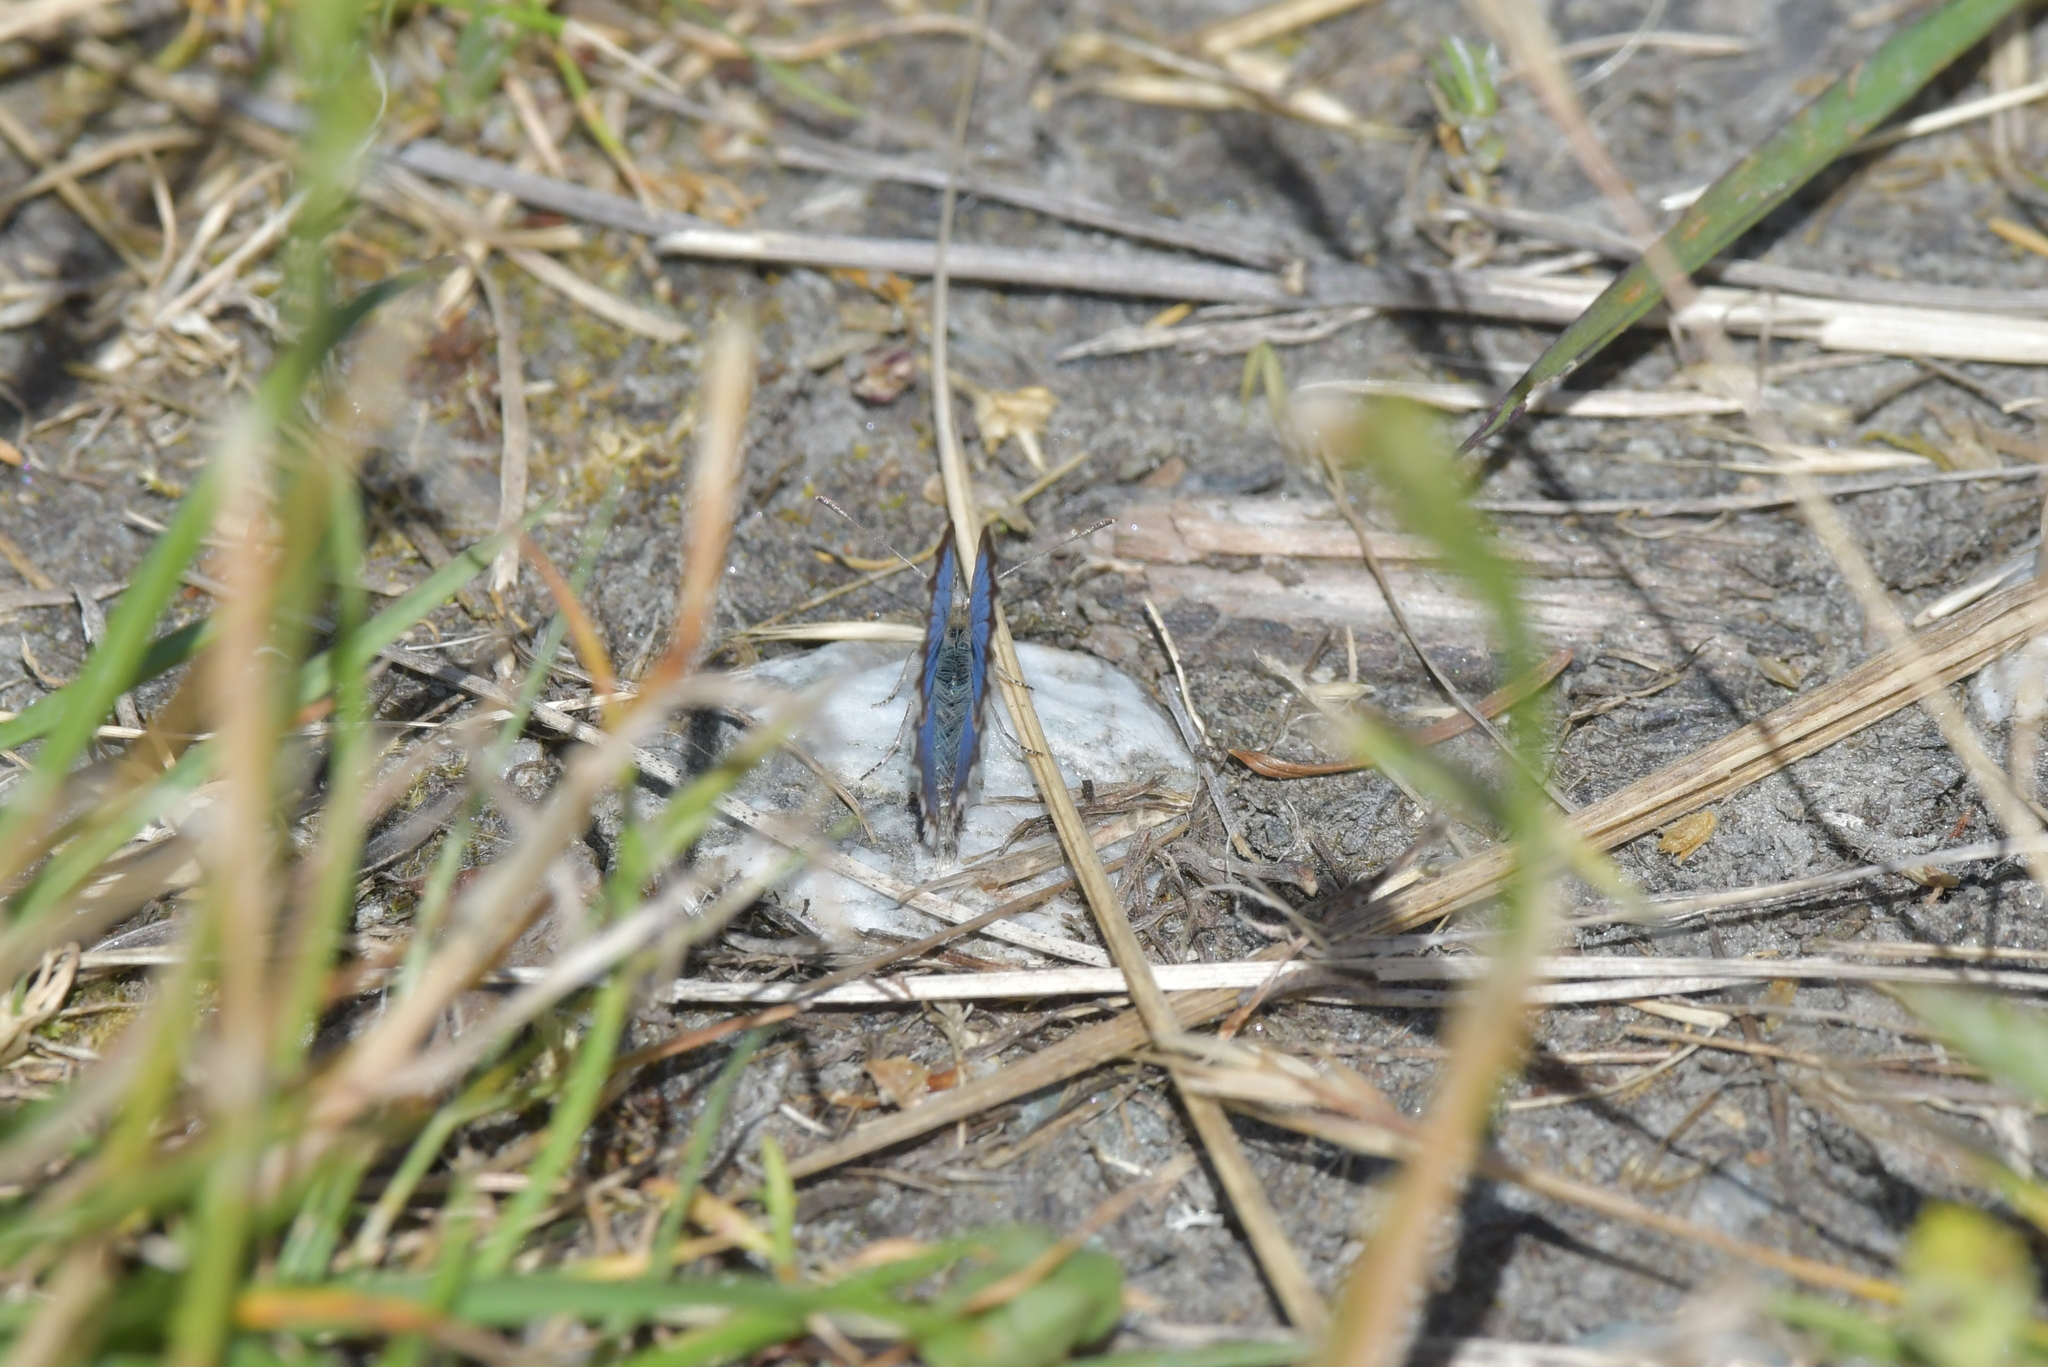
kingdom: Animalia
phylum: Arthropoda
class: Insecta
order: Lepidoptera
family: Lycaenidae
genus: Zizina
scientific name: Zizina oxleyi
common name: Southern blue
